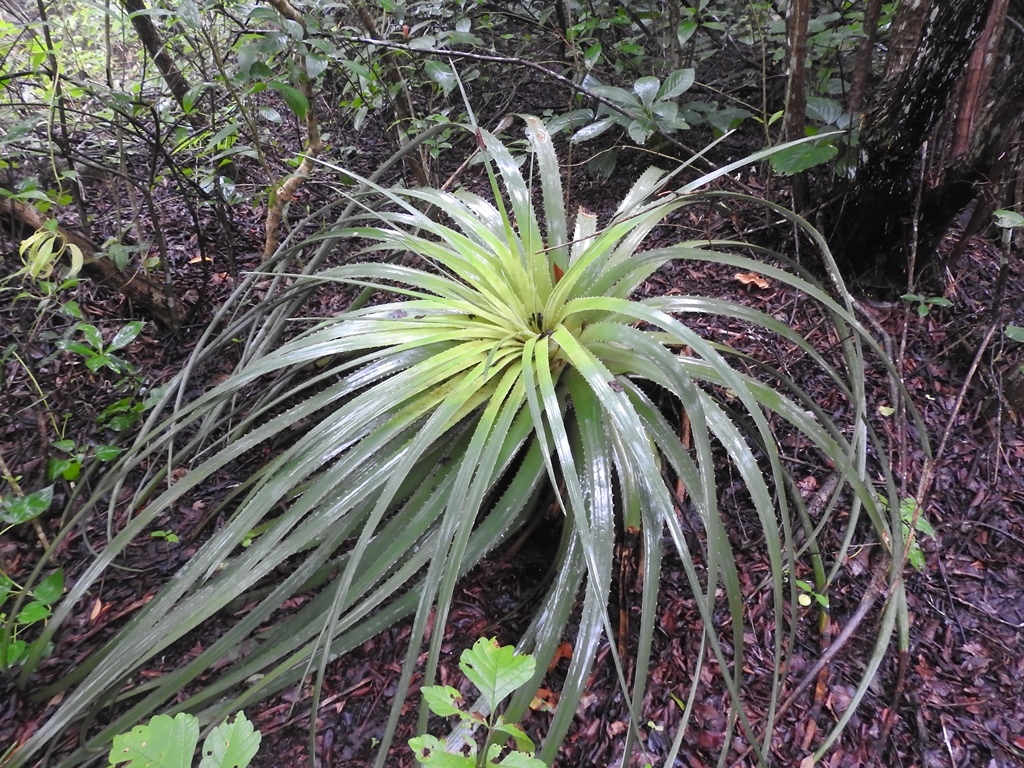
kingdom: Plantae
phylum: Tracheophyta
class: Liliopsida
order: Poales
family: Bromeliaceae
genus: Hechtia
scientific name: Hechtia glomerata
